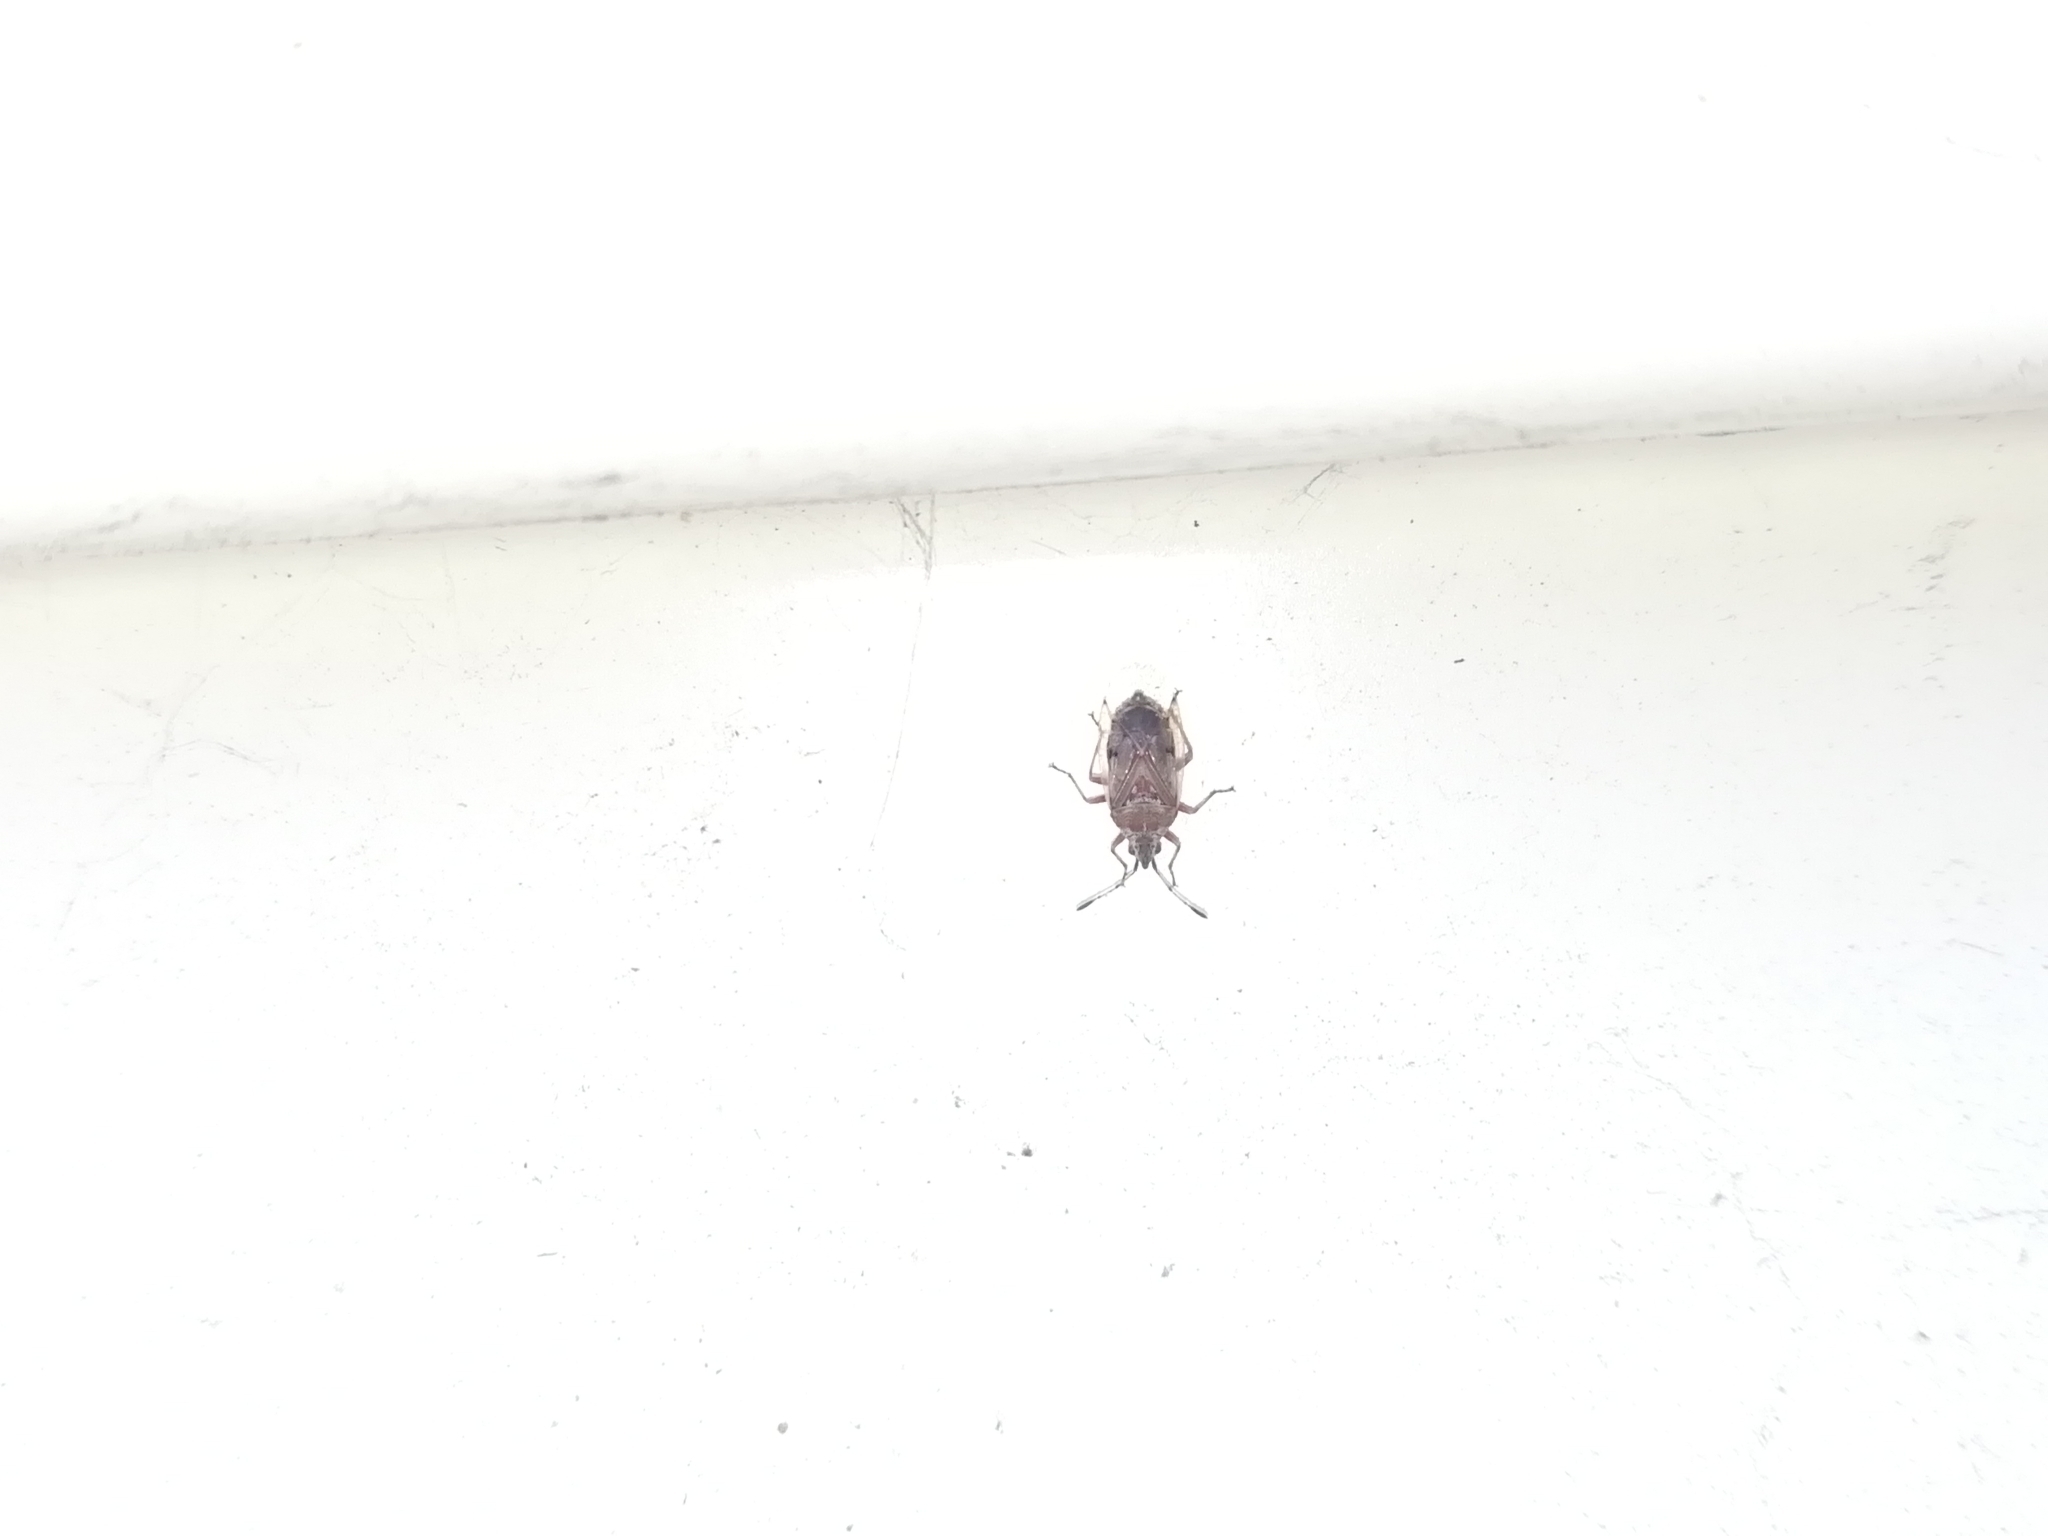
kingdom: Animalia
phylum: Arthropoda
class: Insecta
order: Hemiptera
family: Lygaeidae
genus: Kleidocerys
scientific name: Kleidocerys resedae
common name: Birch catkin bug
